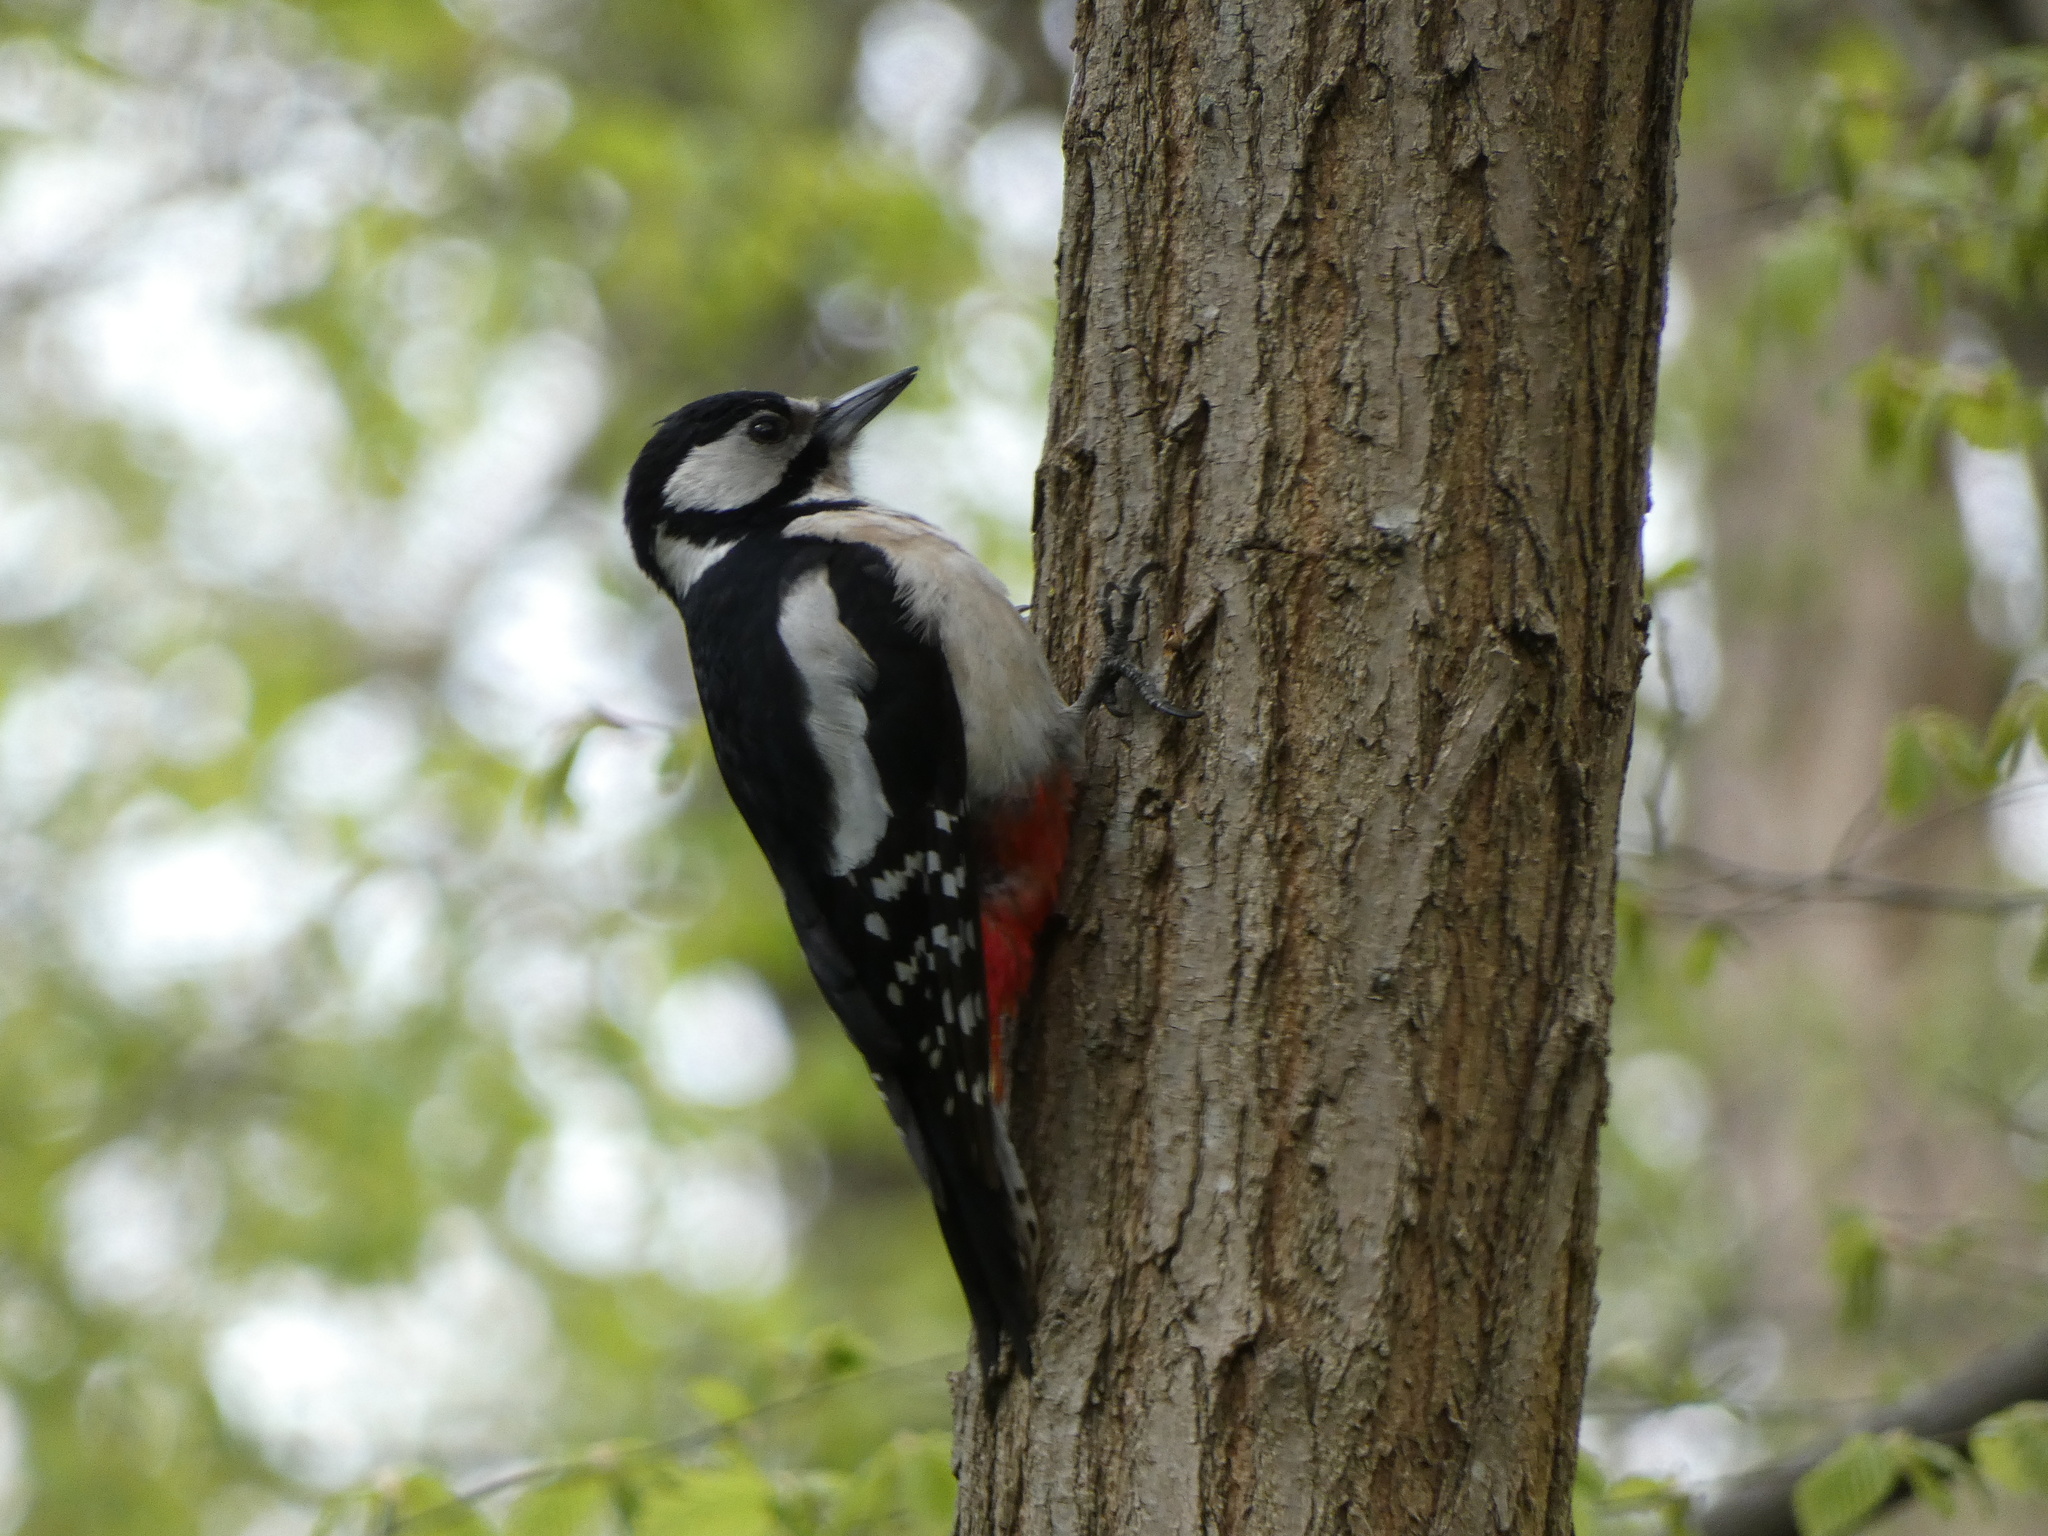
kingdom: Animalia
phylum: Chordata
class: Aves
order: Piciformes
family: Picidae
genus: Dendrocopos
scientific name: Dendrocopos major
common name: Great spotted woodpecker
